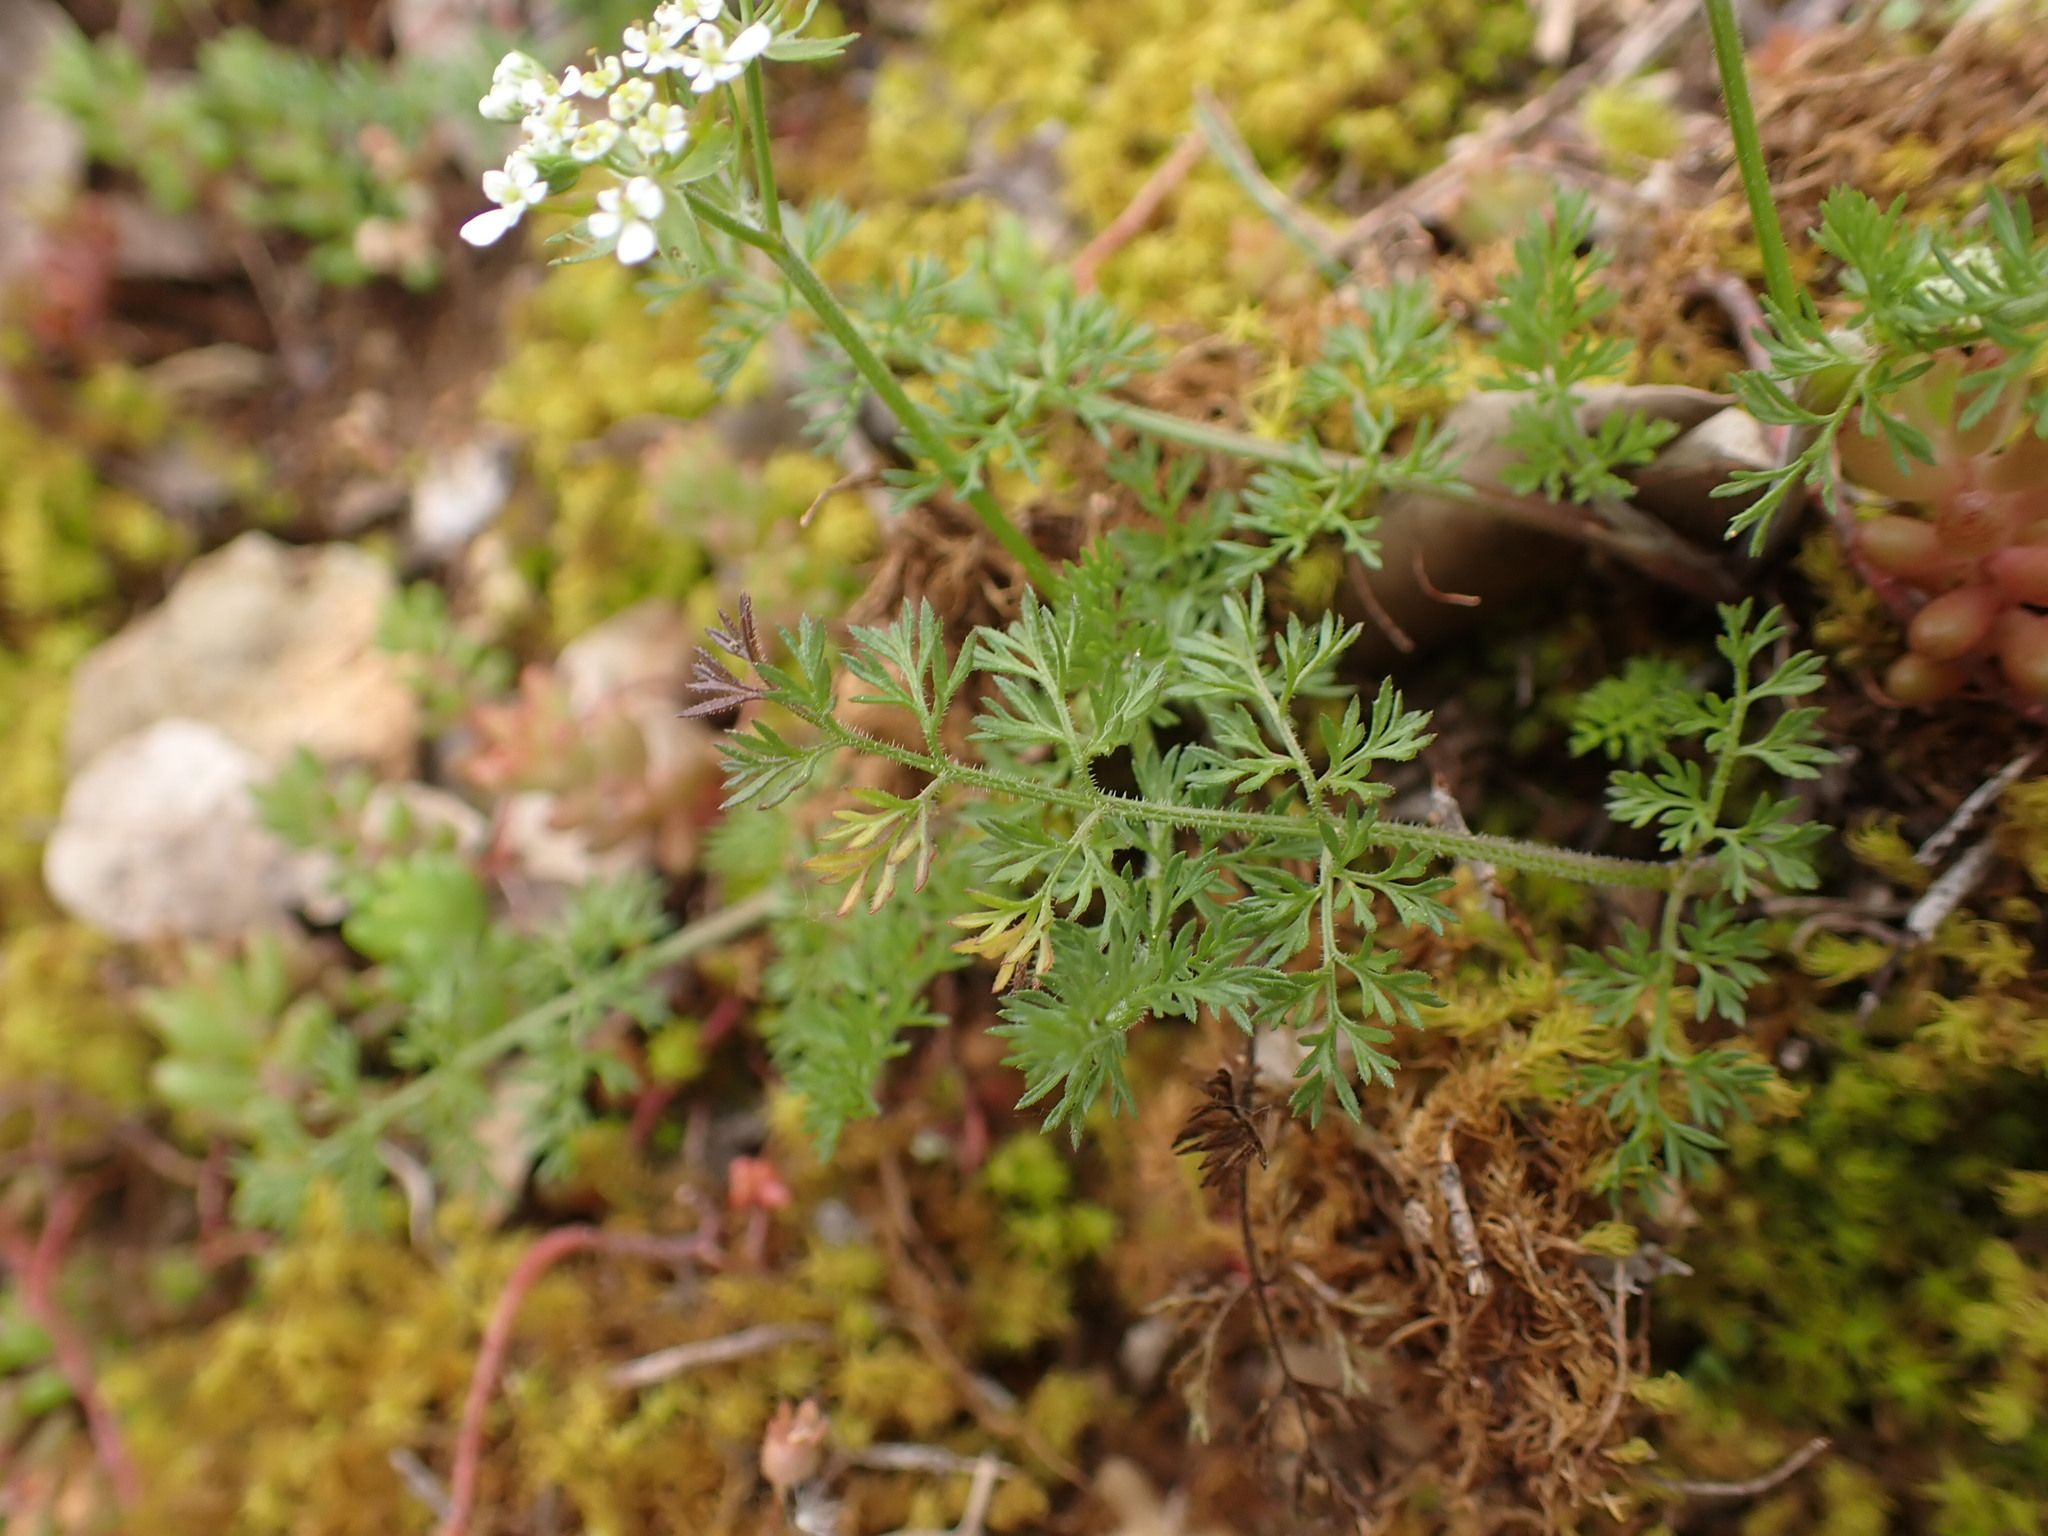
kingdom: Plantae
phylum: Tracheophyta
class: Magnoliopsida
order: Apiales
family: Apiaceae
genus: Scandix
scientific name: Scandix pecten-veneris
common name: Shepherd's-needle
